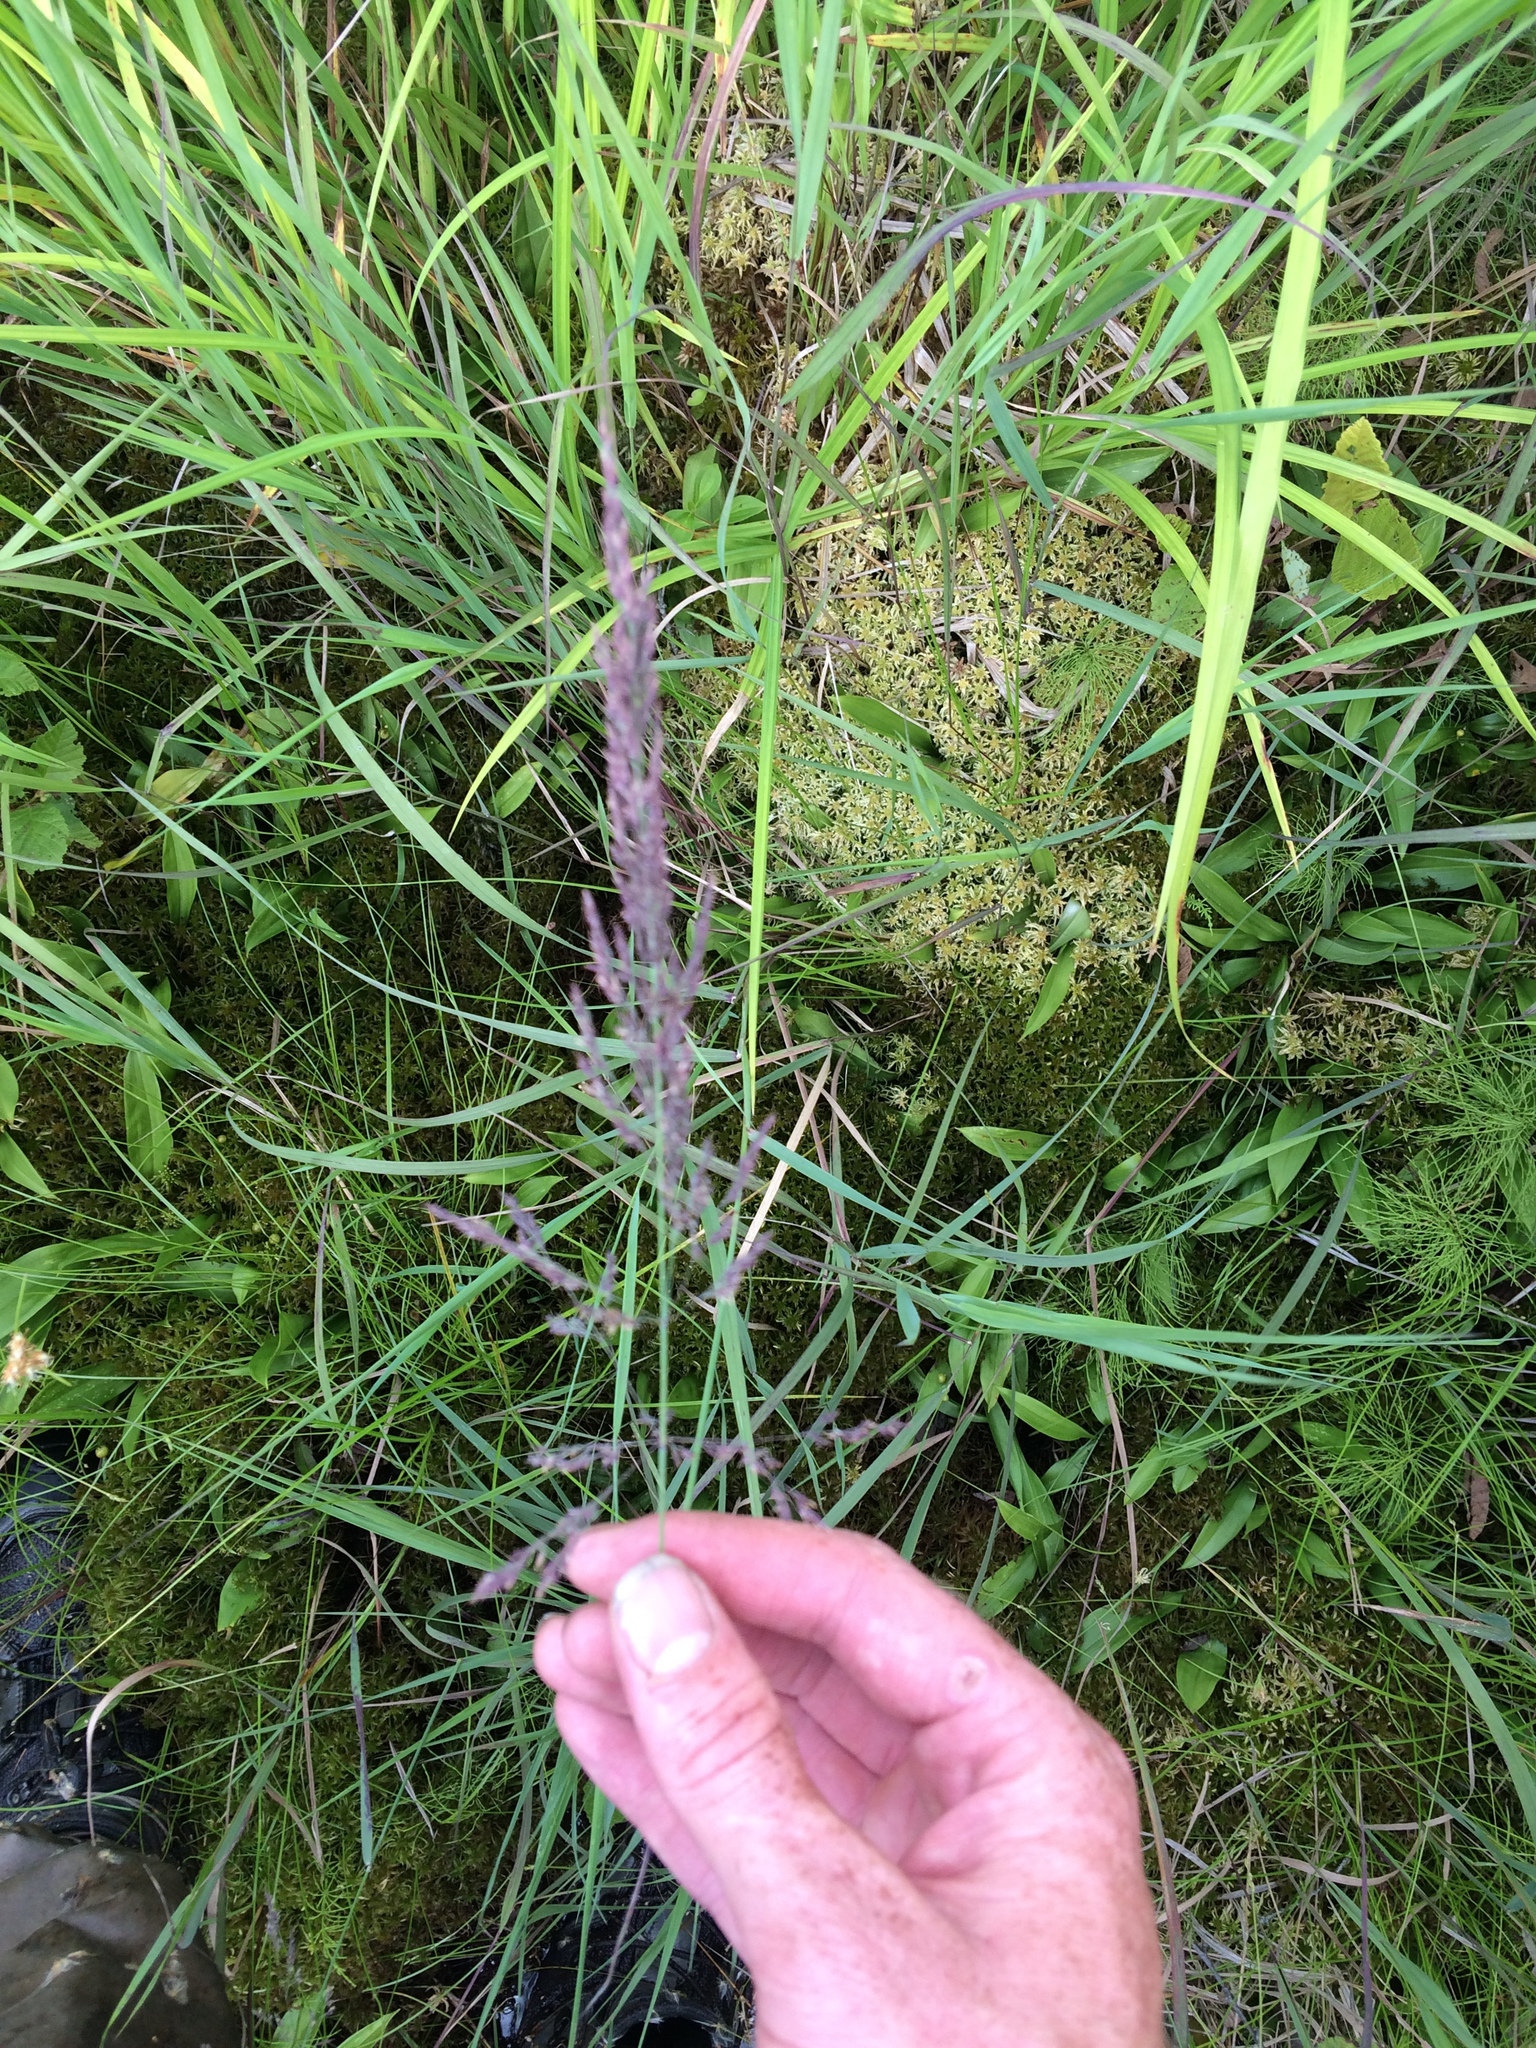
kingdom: Plantae
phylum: Tracheophyta
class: Liliopsida
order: Poales
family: Poaceae
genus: Calamagrostis
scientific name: Calamagrostis canadensis
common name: Canada bluejoint
